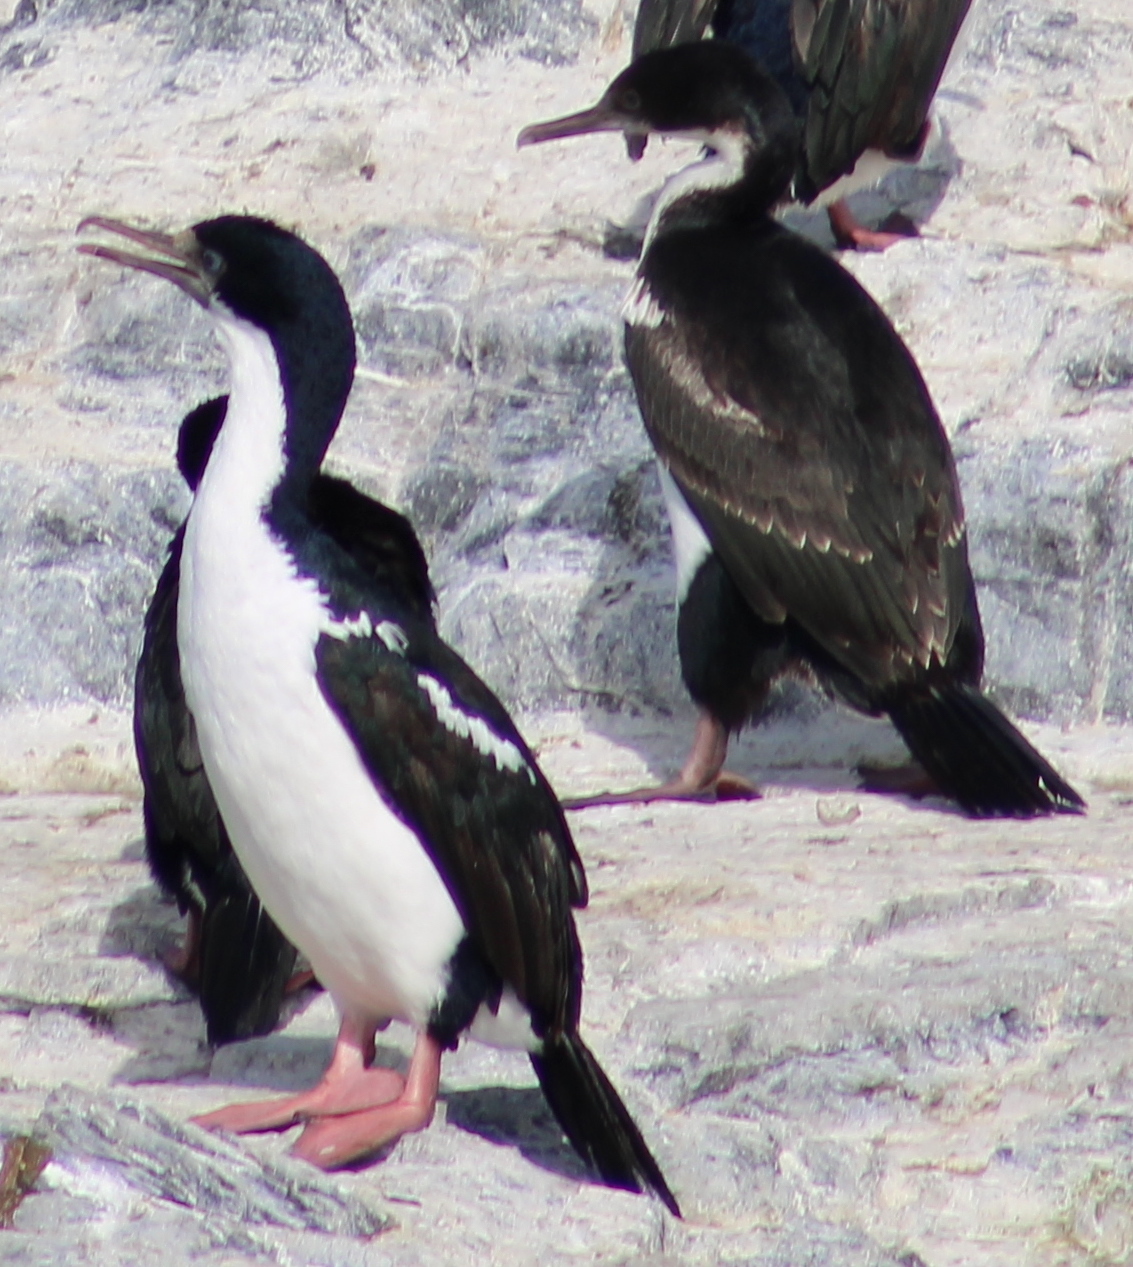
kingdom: Animalia
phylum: Chordata
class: Aves
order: Suliformes
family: Phalacrocoracidae
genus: Leucocarbo
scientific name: Leucocarbo albiventer
